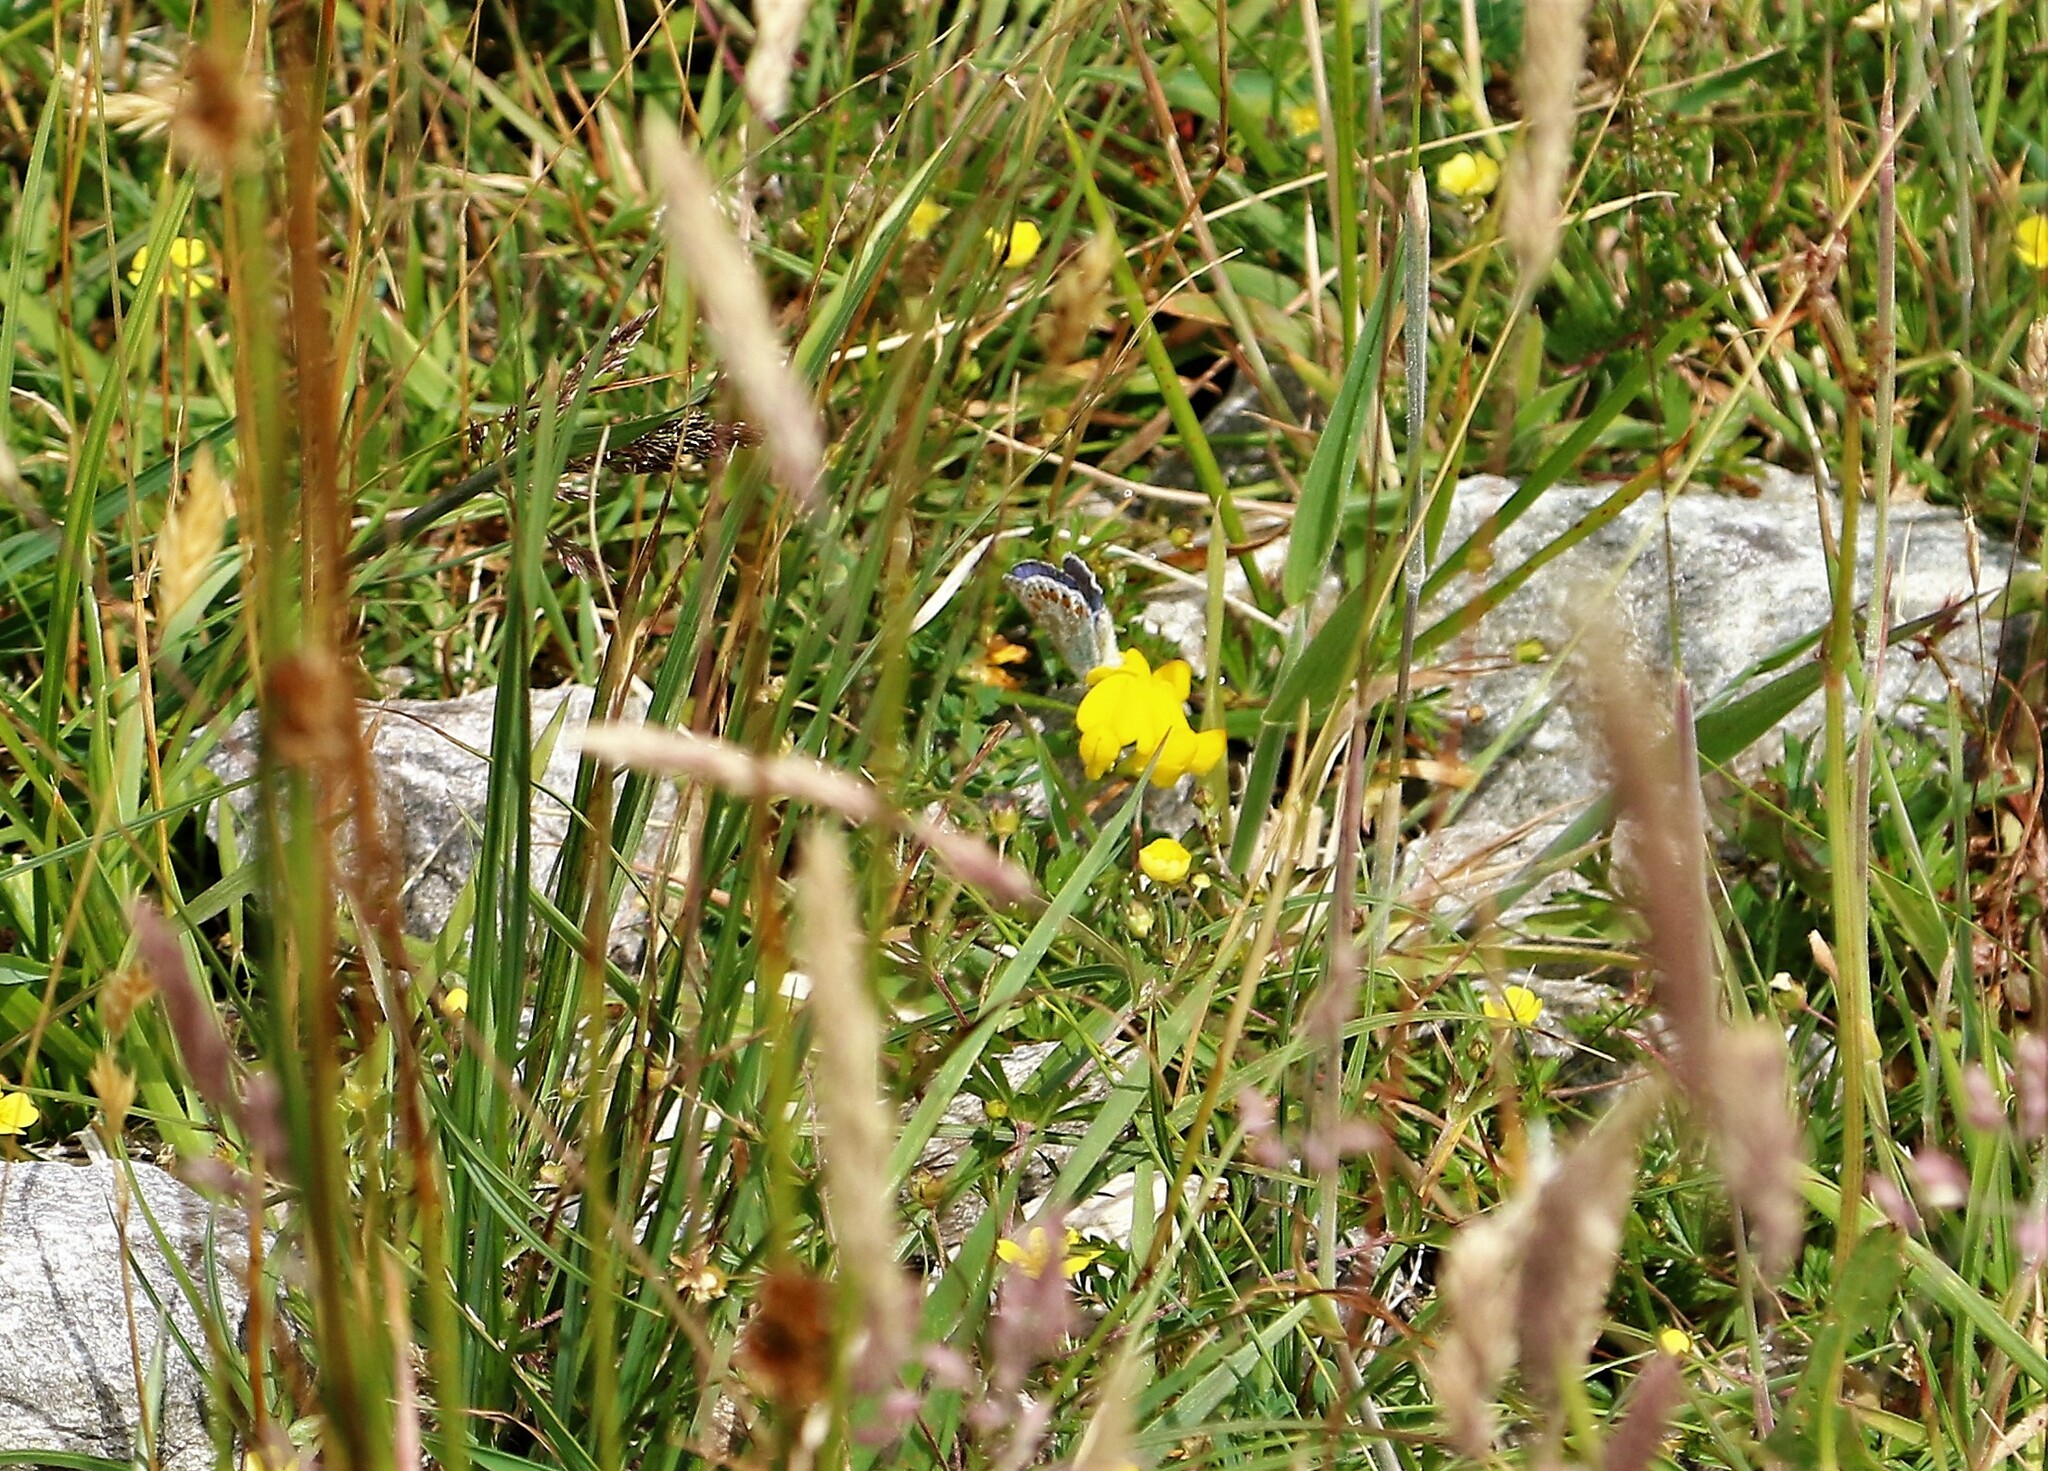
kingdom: Animalia
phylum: Arthropoda
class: Insecta
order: Lepidoptera
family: Lycaenidae
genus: Polyommatus
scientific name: Polyommatus icarus
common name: Common blue
